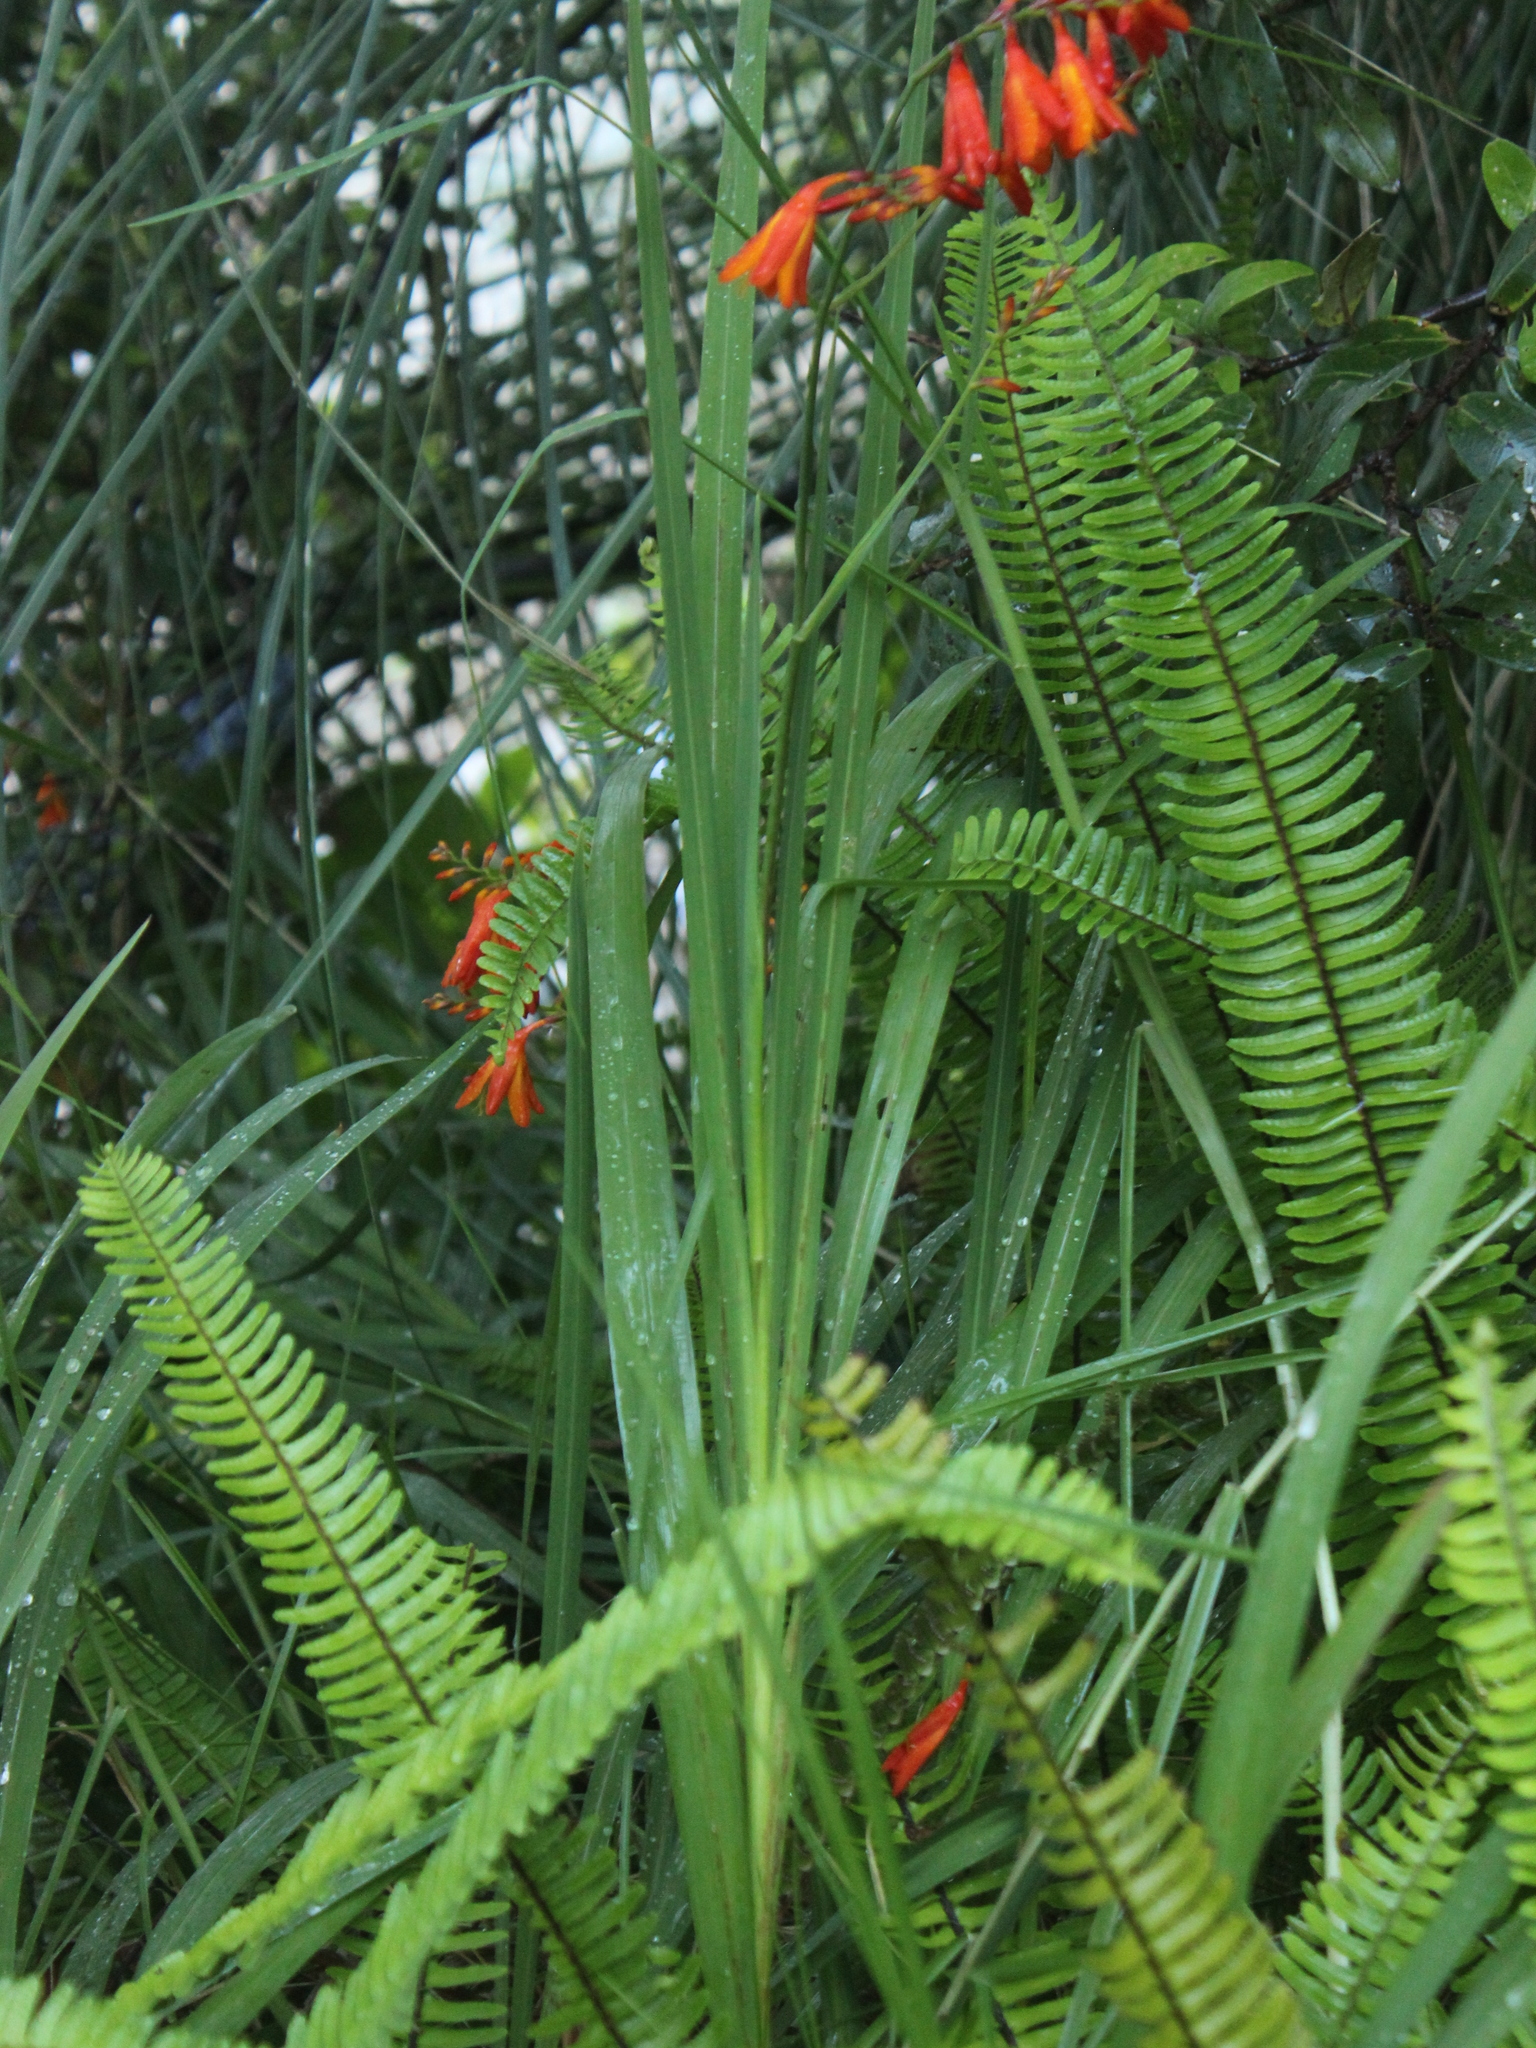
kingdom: Plantae
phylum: Tracheophyta
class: Liliopsida
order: Asparagales
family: Iridaceae
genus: Crocosmia
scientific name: Crocosmia crocosmiiflora
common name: Montbretia
